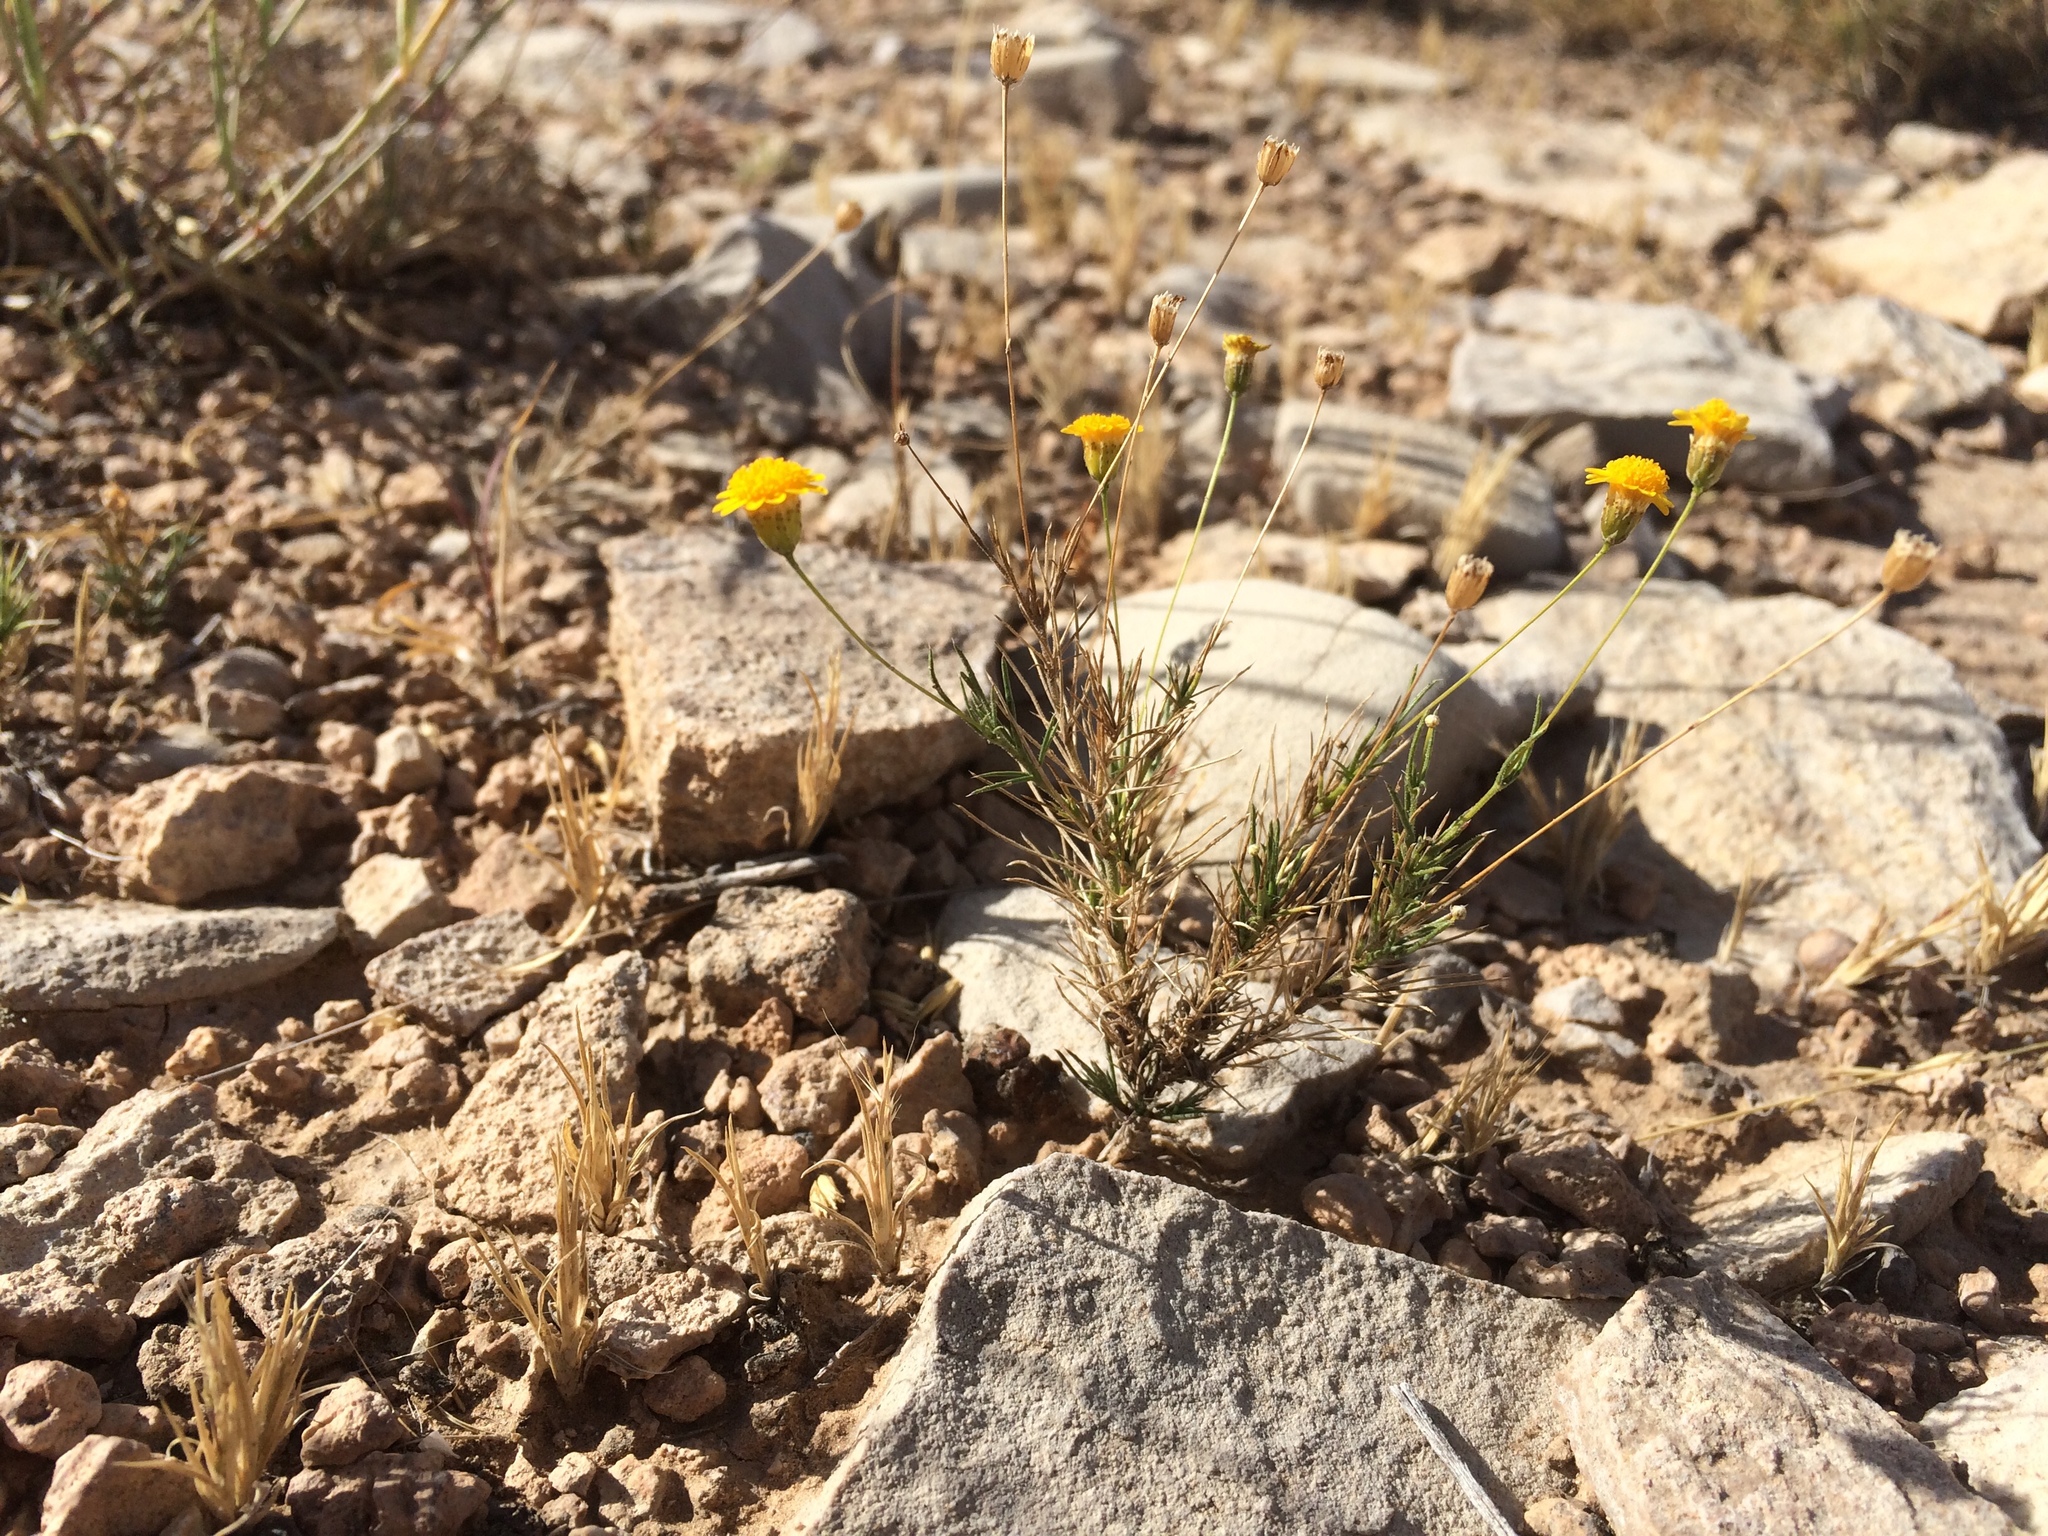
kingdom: Plantae
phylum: Tracheophyta
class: Magnoliopsida
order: Asterales
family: Asteraceae
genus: Thymophylla
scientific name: Thymophylla pentachaeta
